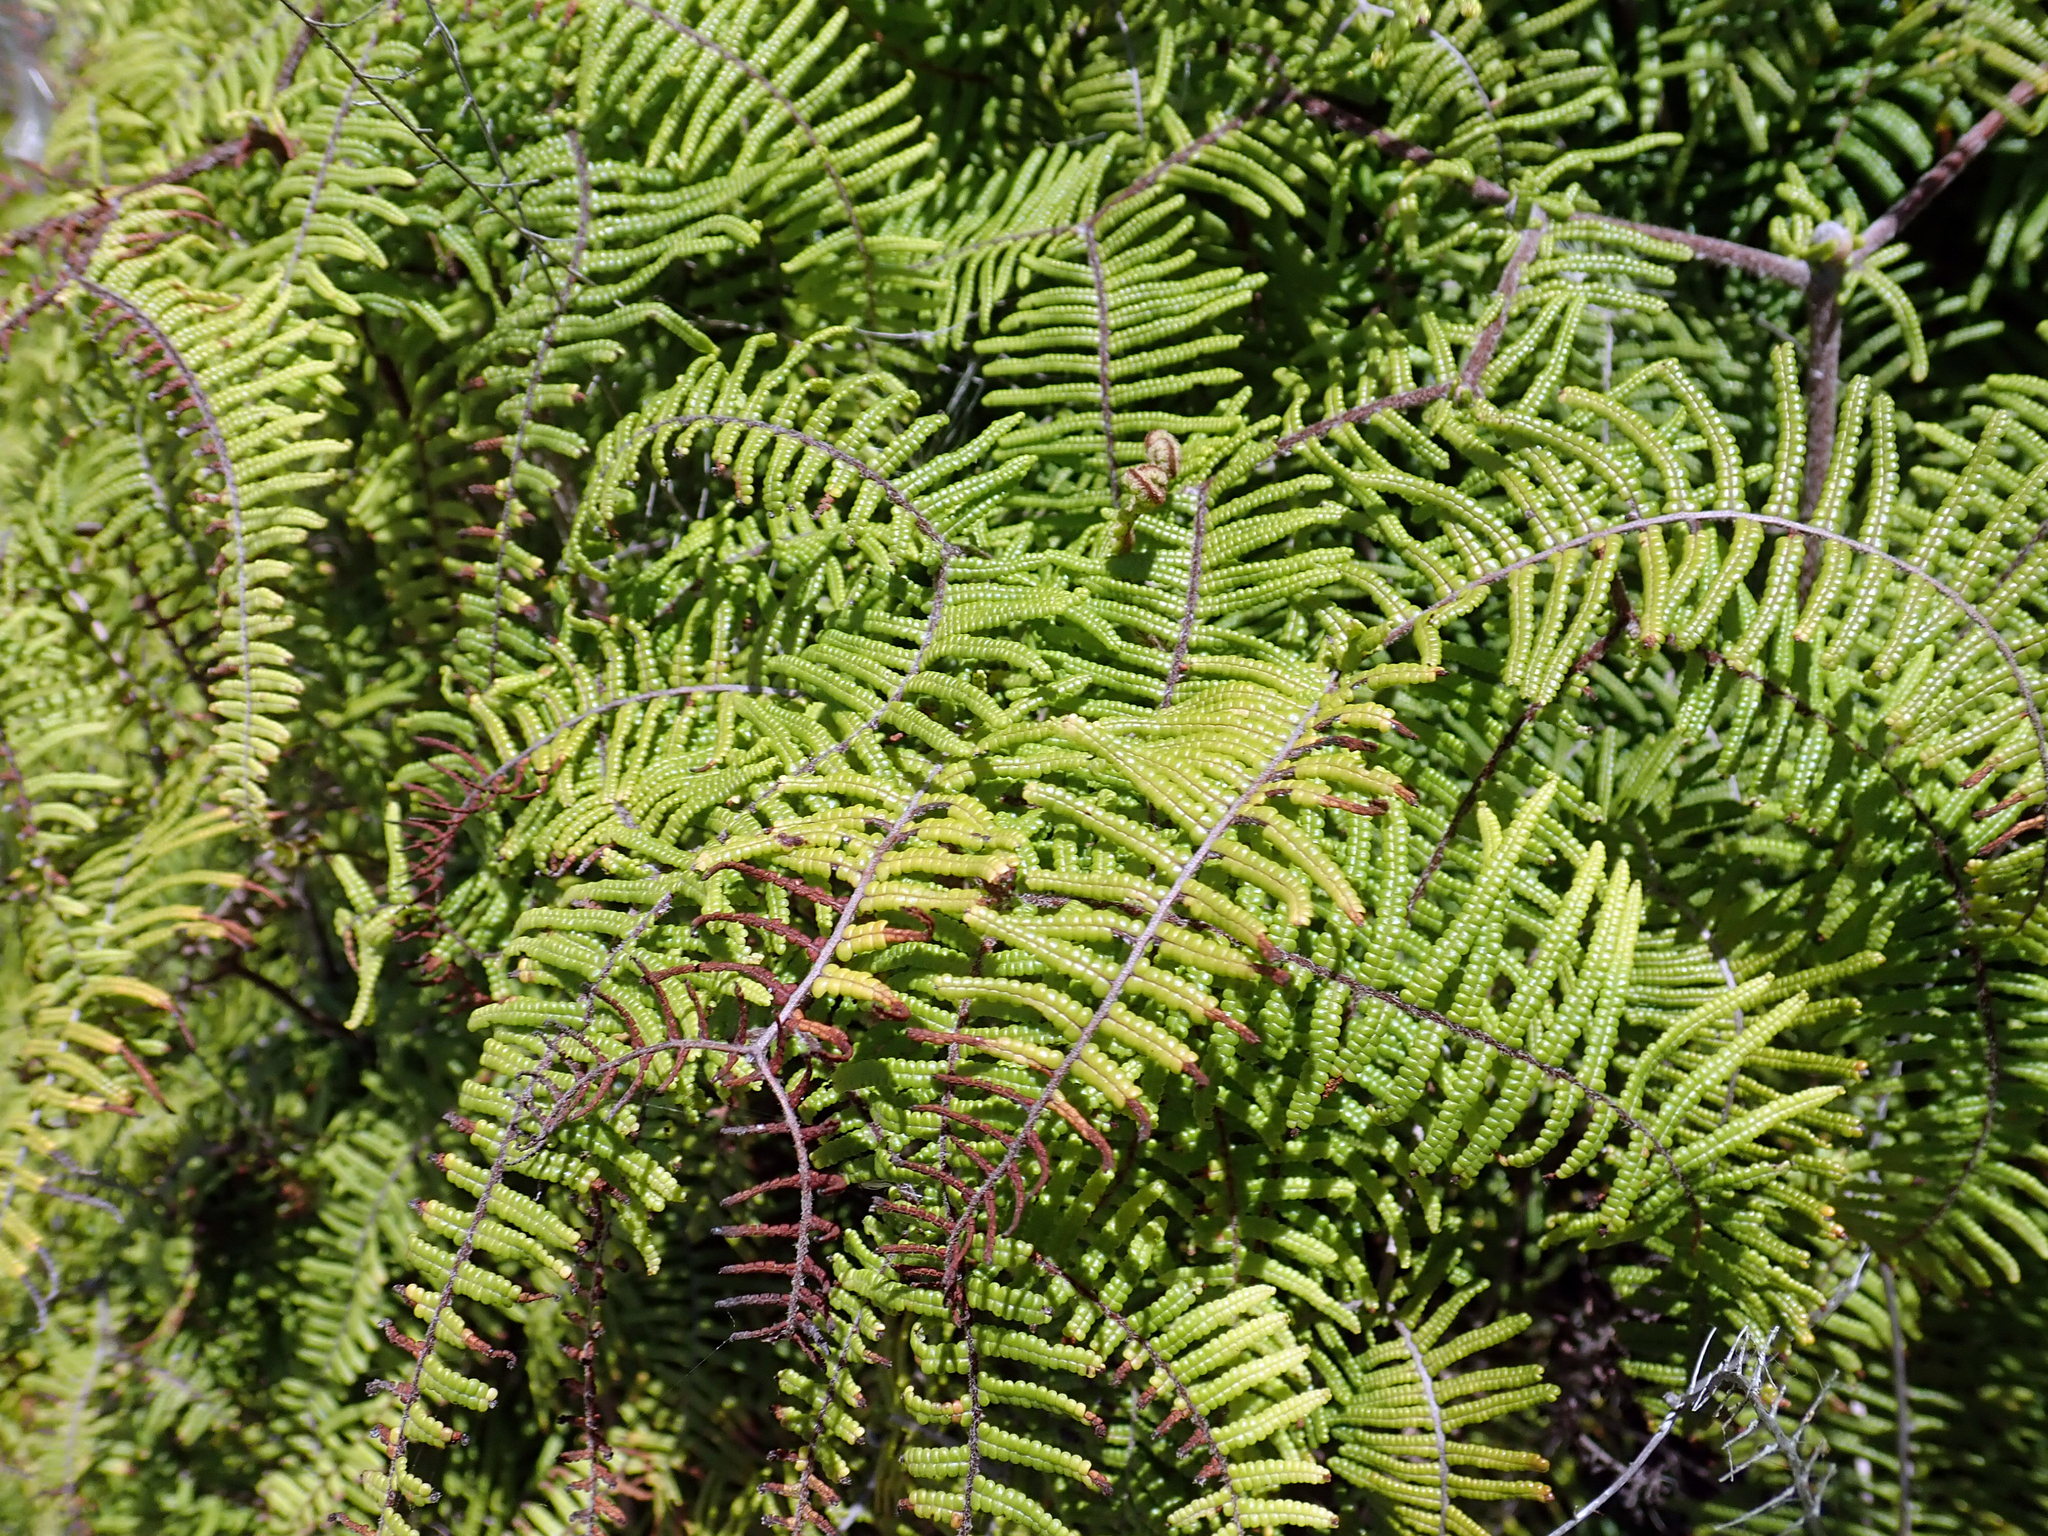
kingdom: Plantae
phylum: Tracheophyta
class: Polypodiopsida
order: Gleicheniales
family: Gleicheniaceae
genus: Gleichenia
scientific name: Gleichenia dicarpa
